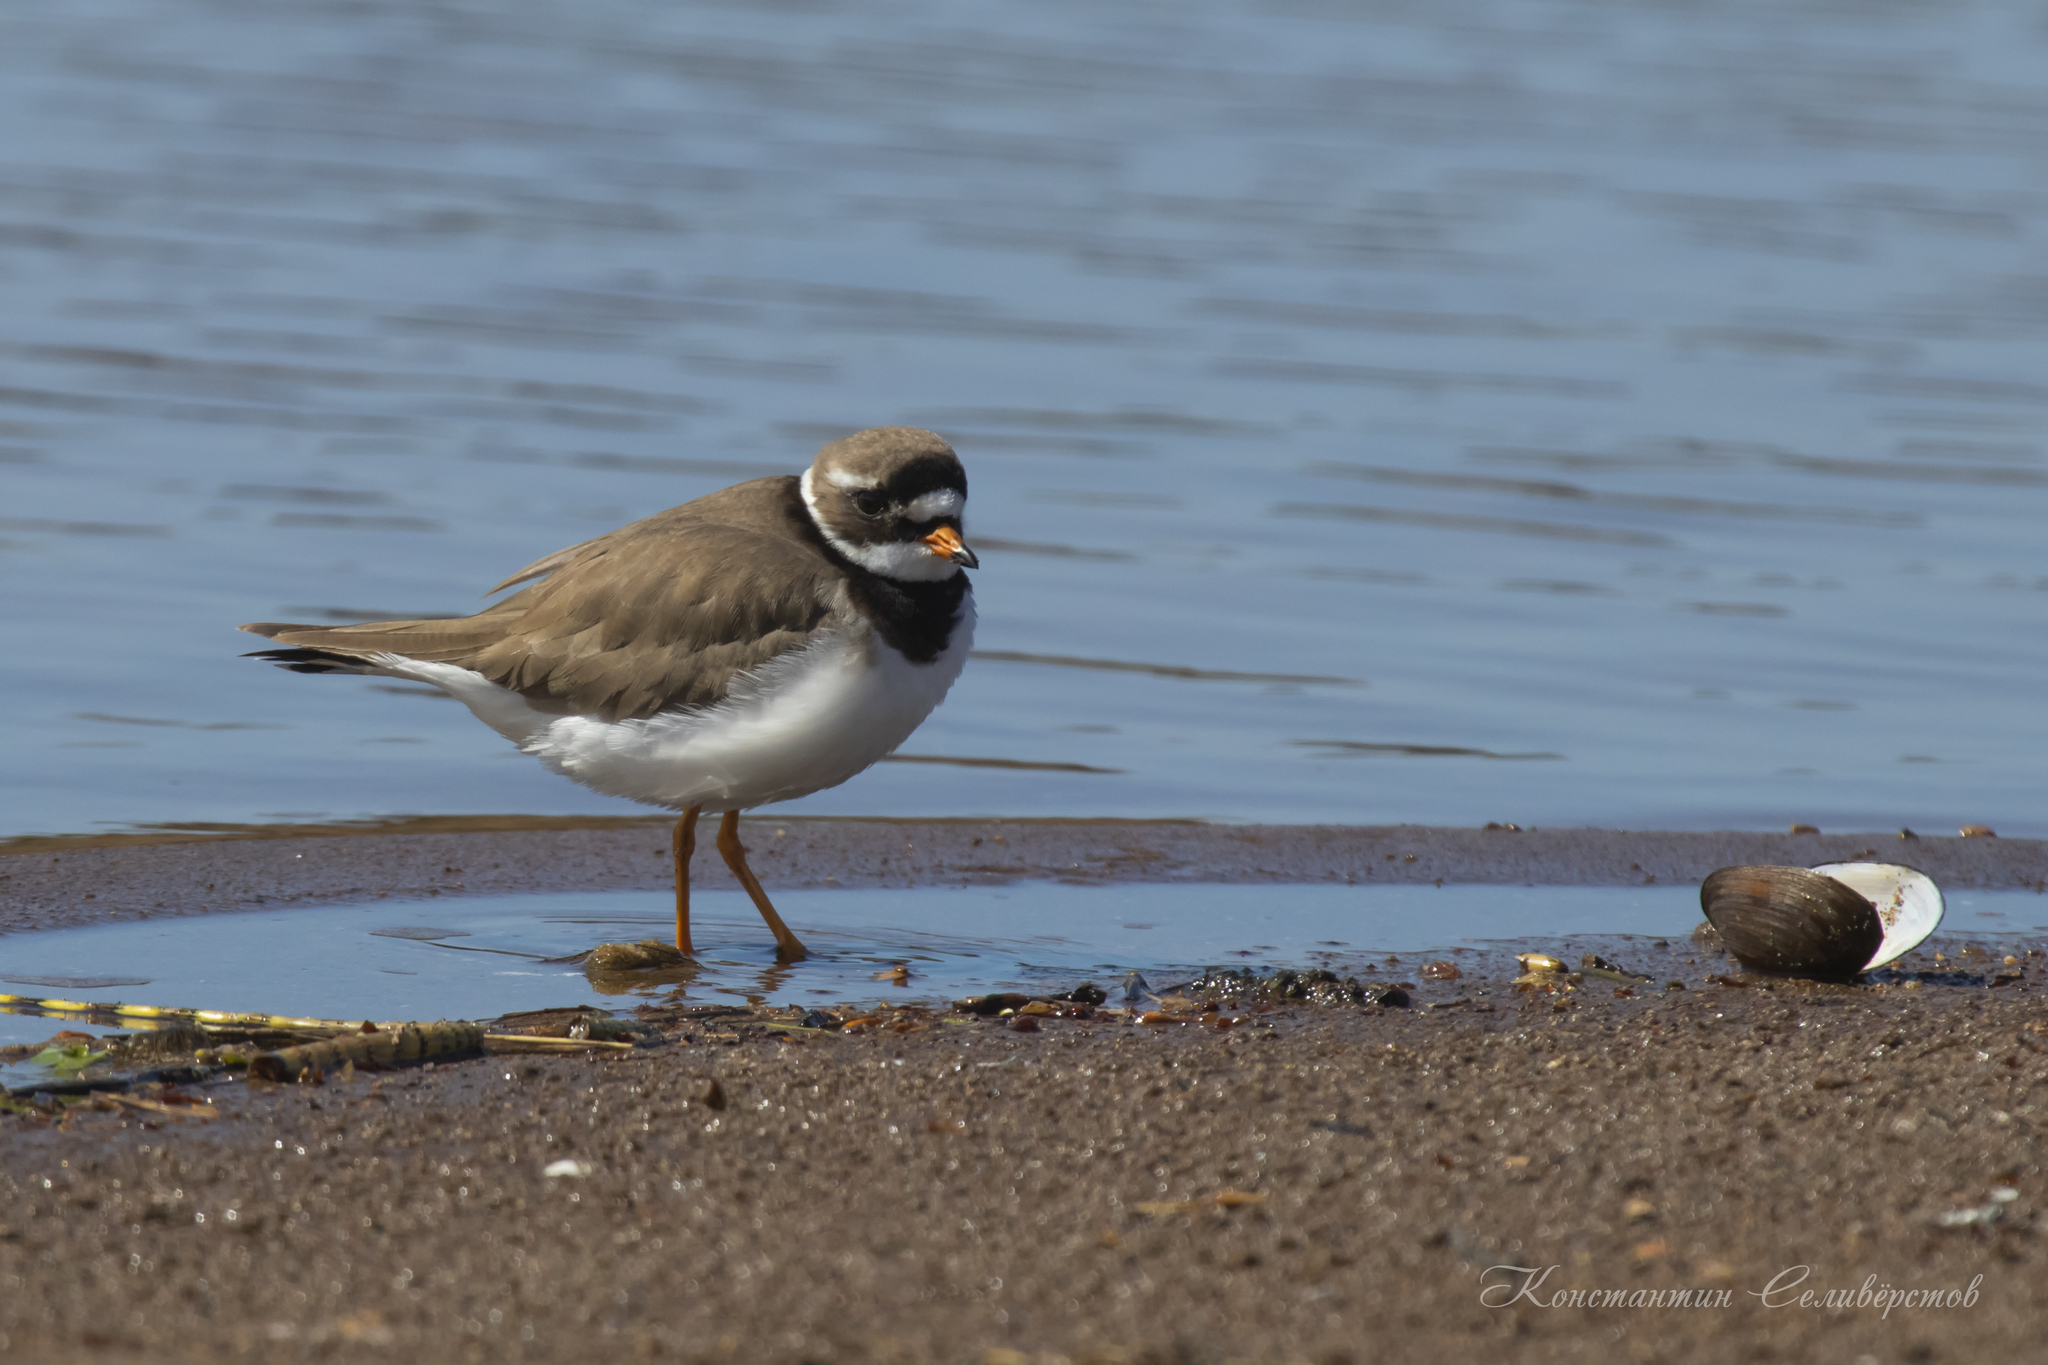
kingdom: Animalia
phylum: Chordata
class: Aves
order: Charadriiformes
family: Charadriidae
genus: Charadrius
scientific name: Charadrius hiaticula
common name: Common ringed plover
